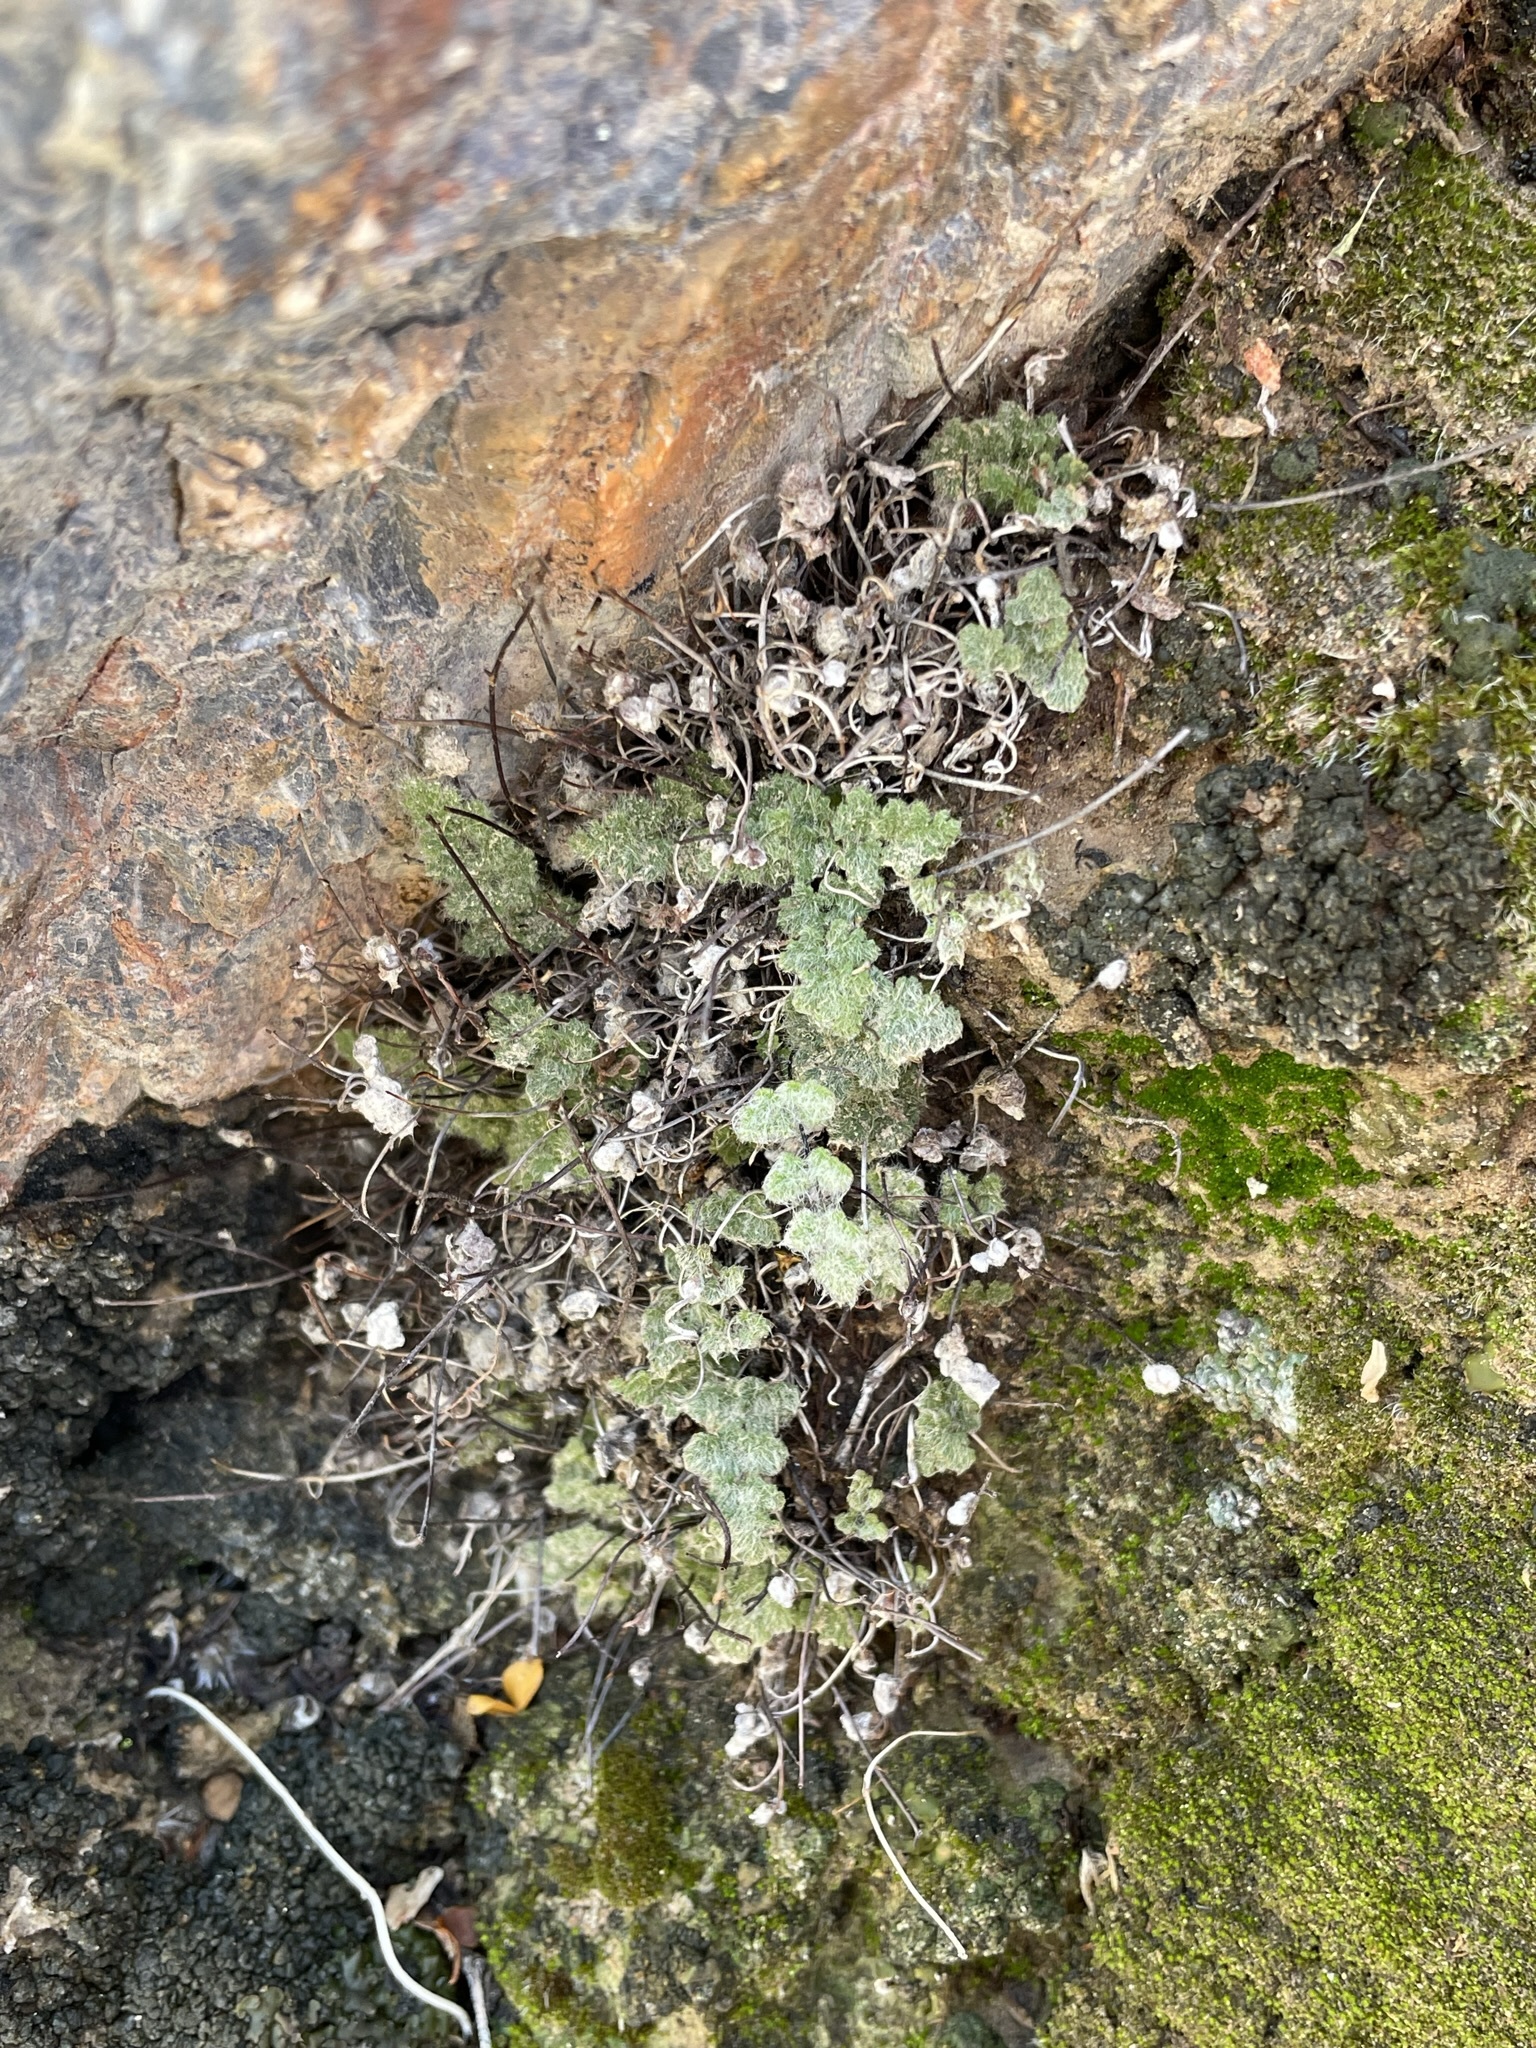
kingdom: Plantae
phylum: Tracheophyta
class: Polypodiopsida
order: Polypodiales
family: Pteridaceae
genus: Myriopteris
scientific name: Myriopteris parryi
